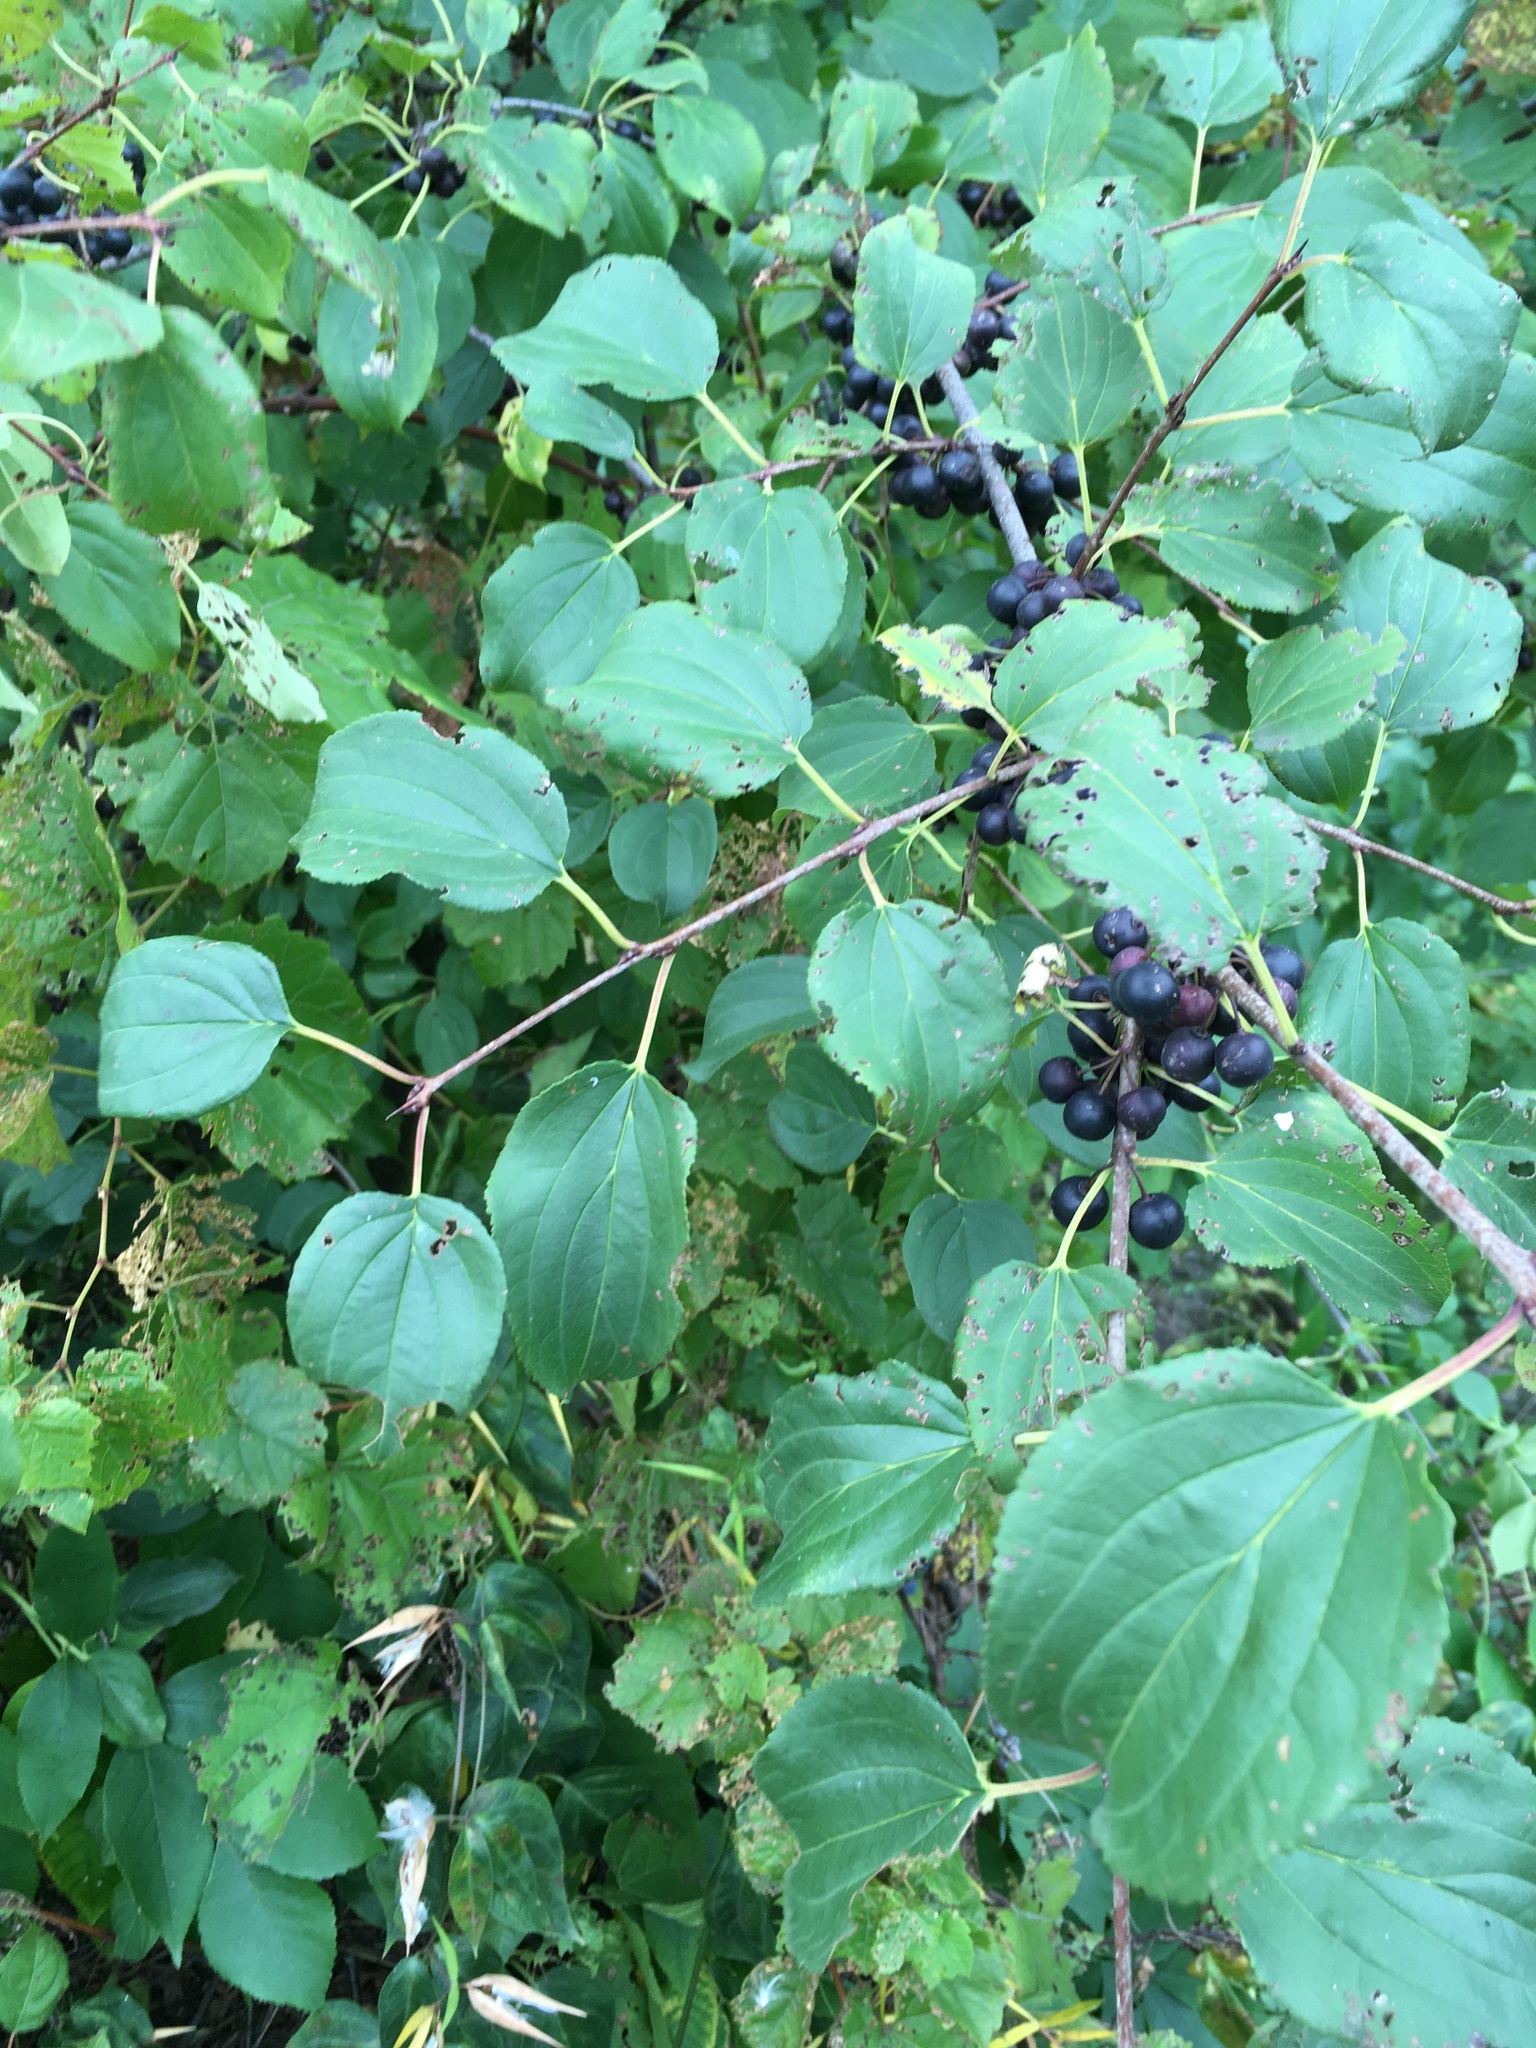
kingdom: Plantae
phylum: Tracheophyta
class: Magnoliopsida
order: Rosales
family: Rhamnaceae
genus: Rhamnus
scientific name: Rhamnus cathartica
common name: Common buckthorn
